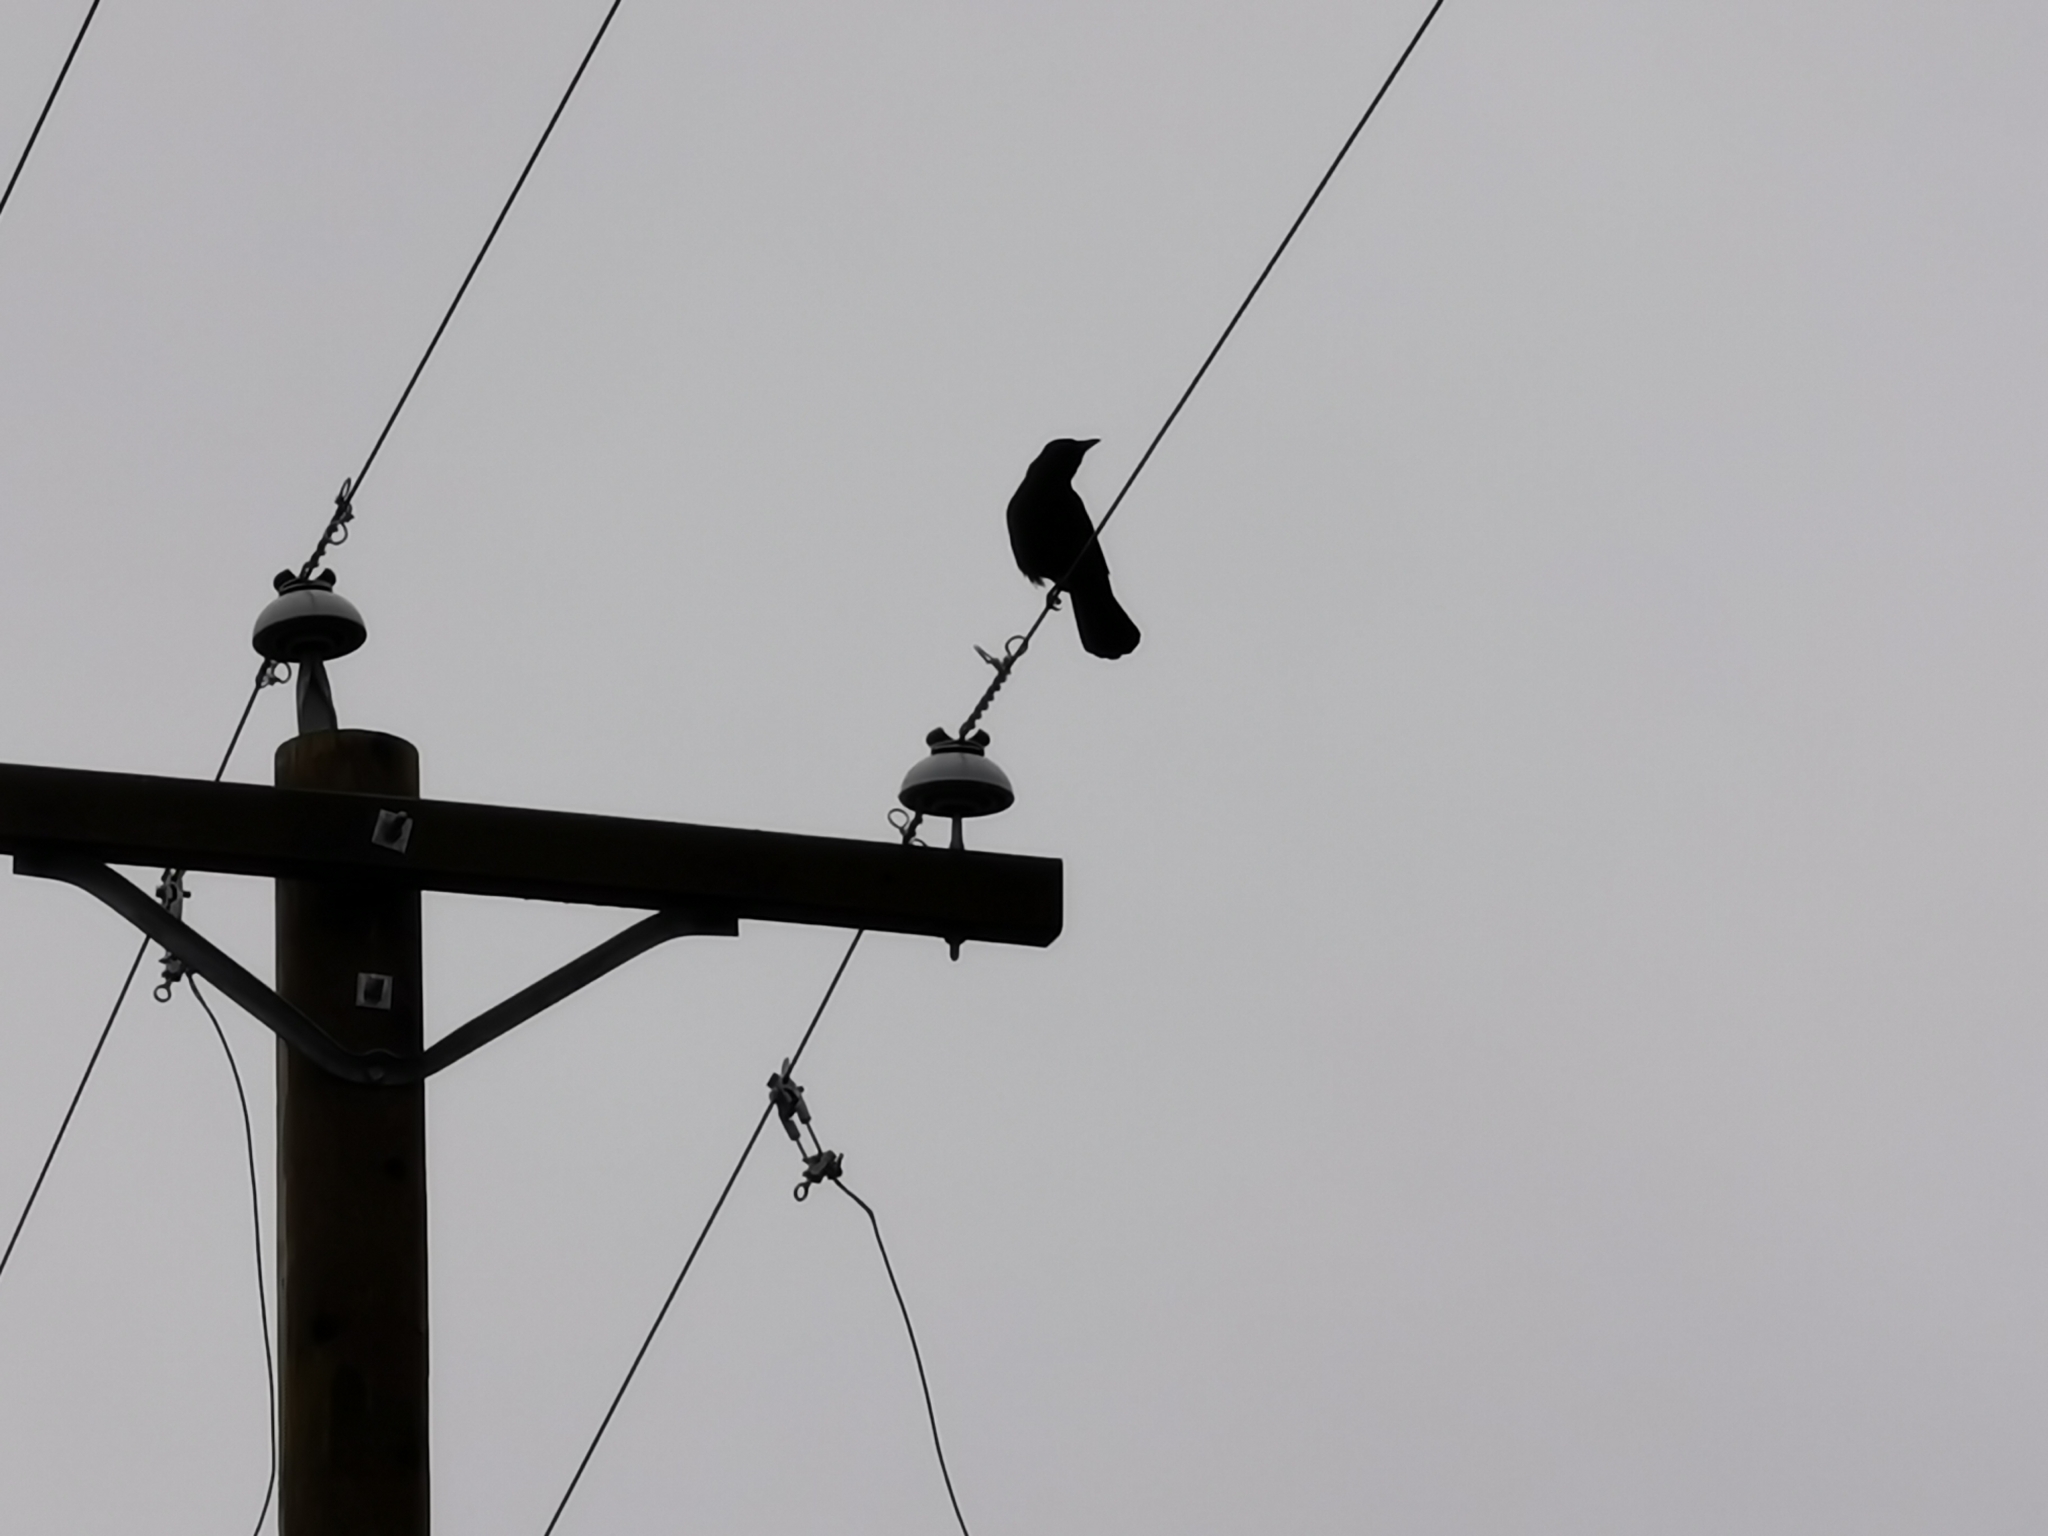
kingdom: Animalia
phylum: Chordata
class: Aves
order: Passeriformes
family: Corvidae
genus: Corvus
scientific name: Corvus brachyrhynchos
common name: American crow
